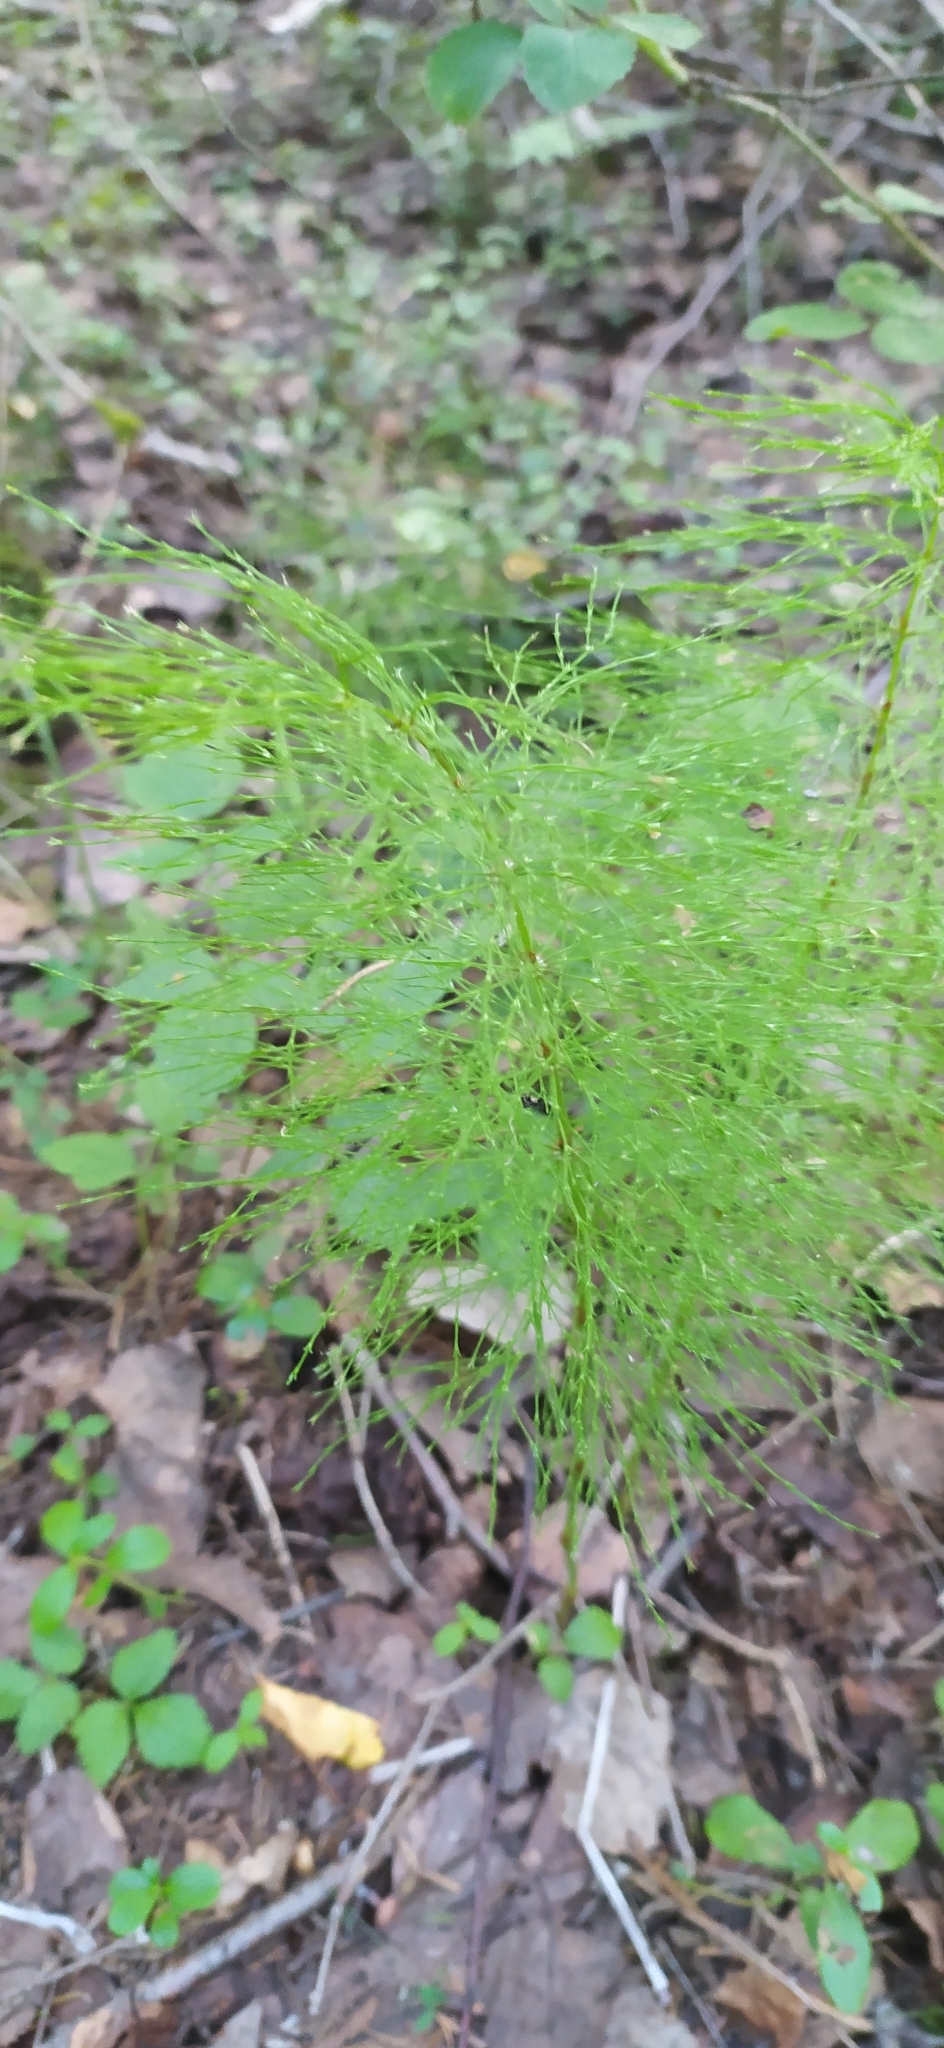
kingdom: Plantae
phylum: Tracheophyta
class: Polypodiopsida
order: Equisetales
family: Equisetaceae
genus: Equisetum
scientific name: Equisetum sylvaticum
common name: Wood horsetail
